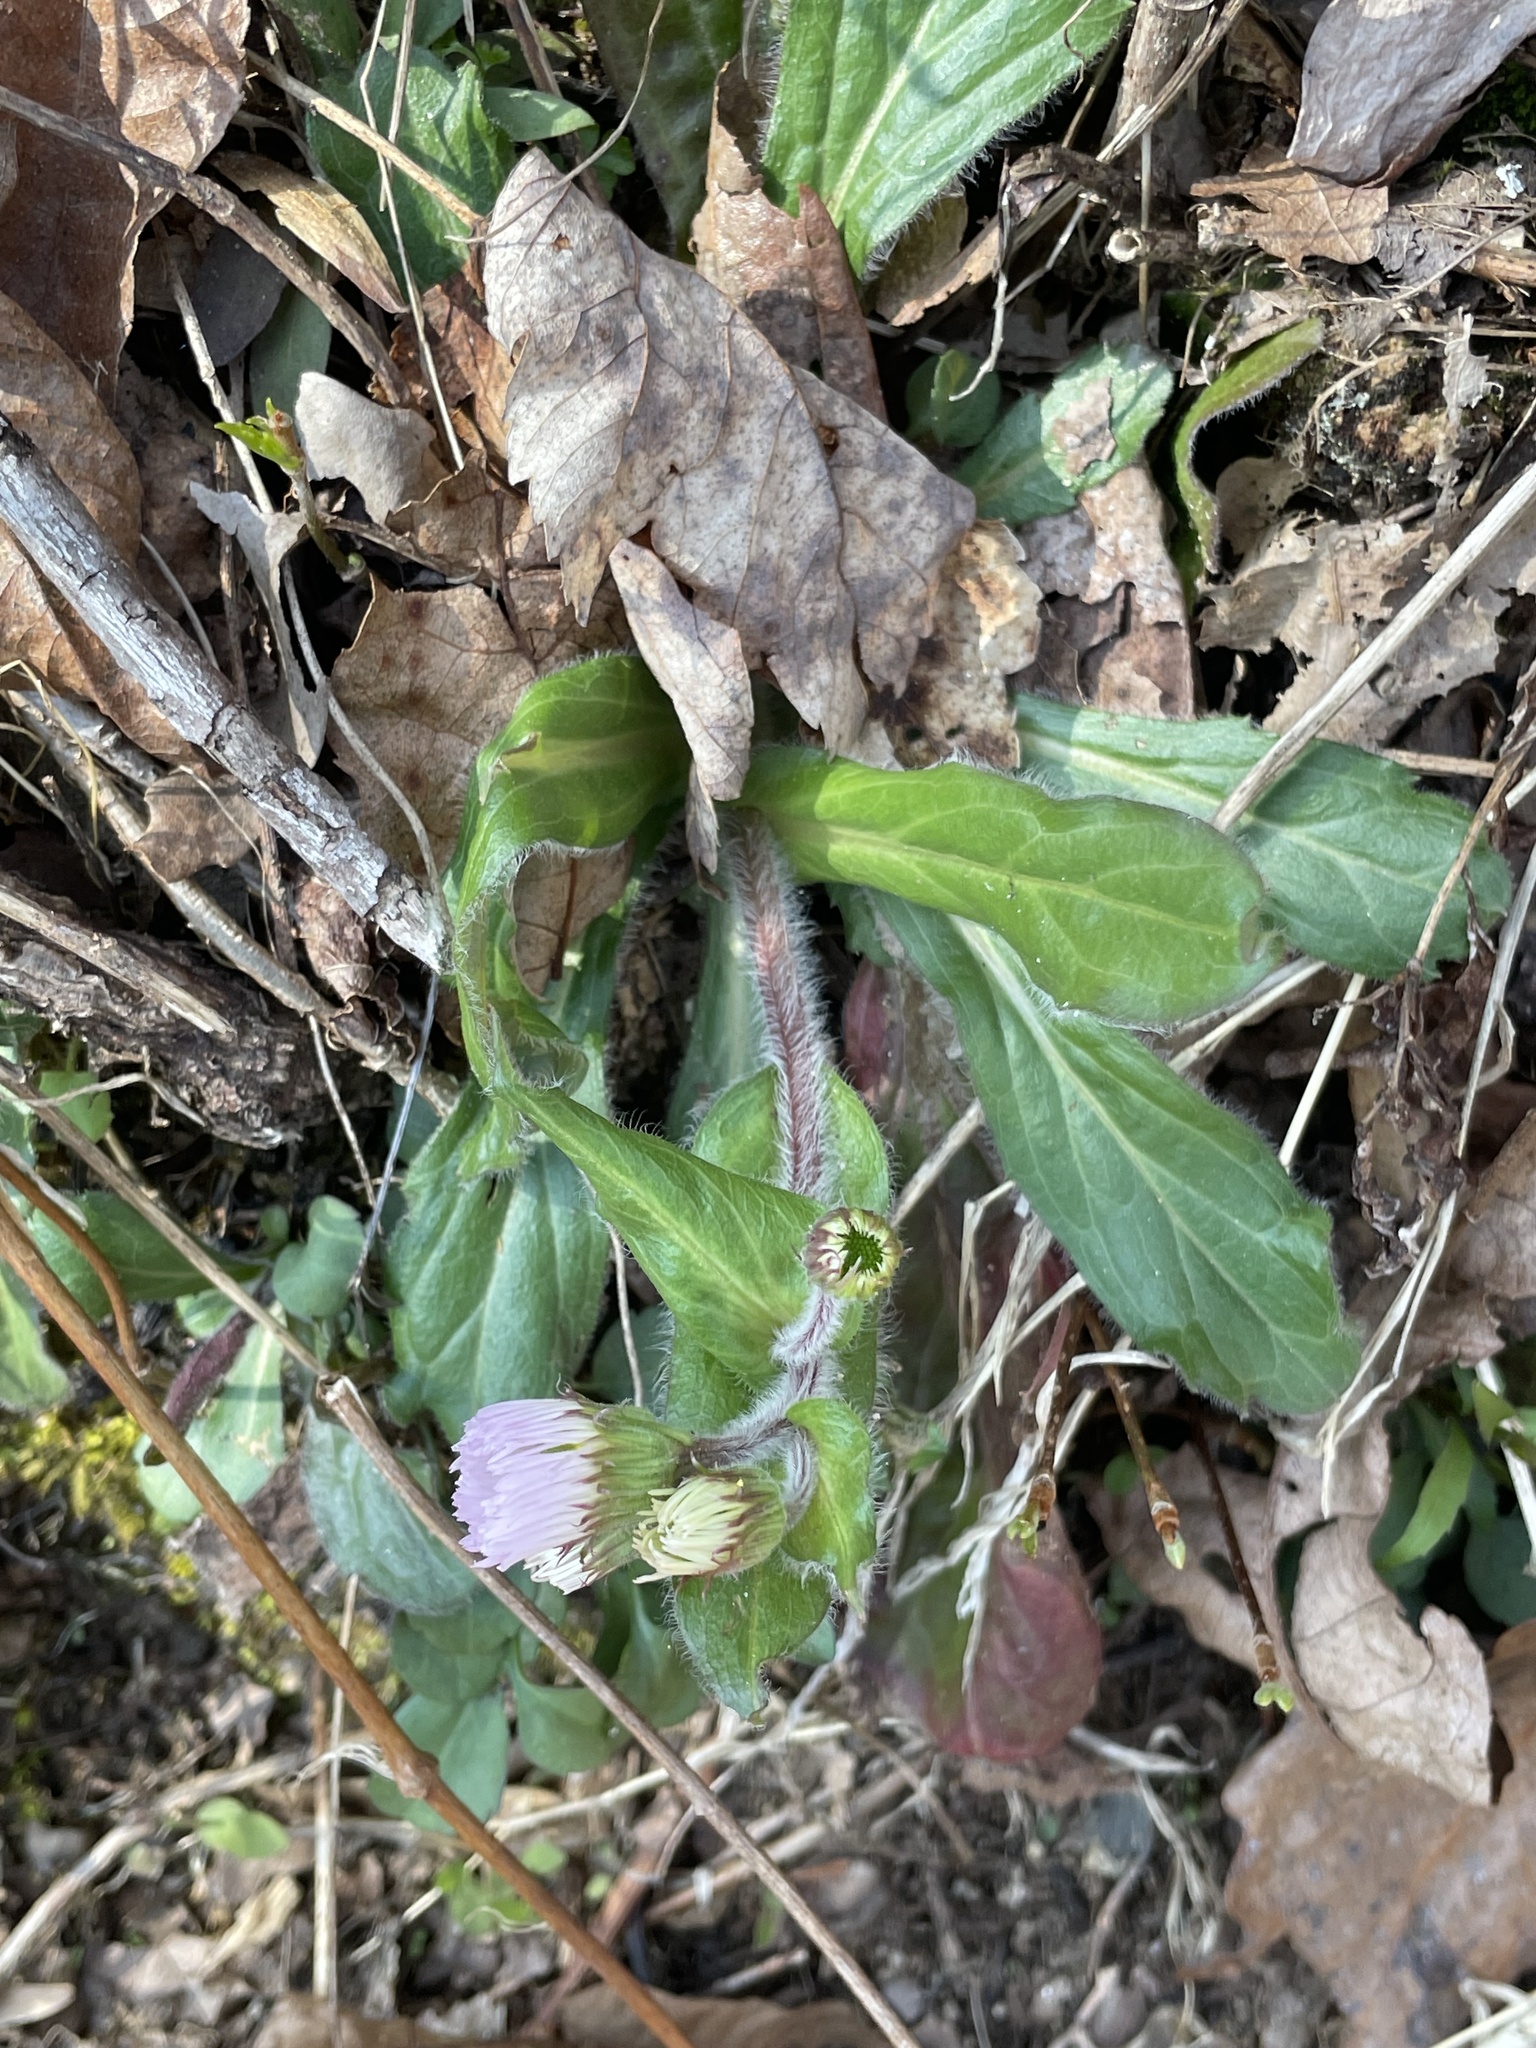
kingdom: Plantae
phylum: Tracheophyta
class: Magnoliopsida
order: Asterales
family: Asteraceae
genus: Erigeron
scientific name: Erigeron pulchellus
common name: Hairy fleabane
